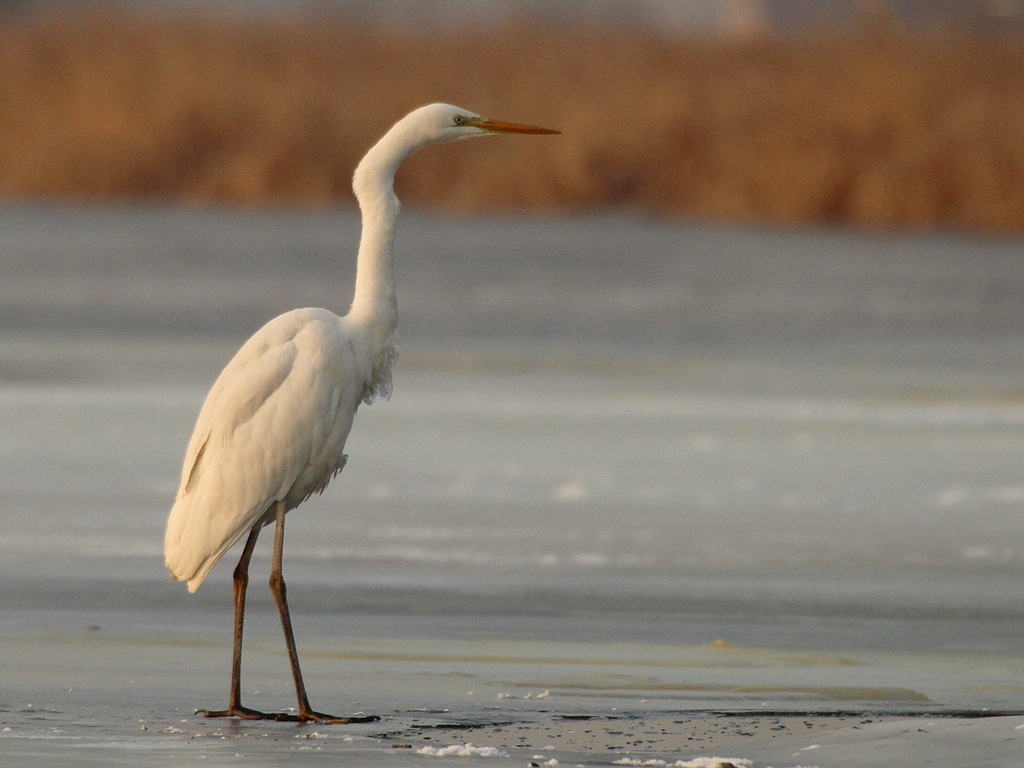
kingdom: Animalia
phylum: Chordata
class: Aves
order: Pelecaniformes
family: Ardeidae
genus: Ardea
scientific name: Ardea alba
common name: Great egret
